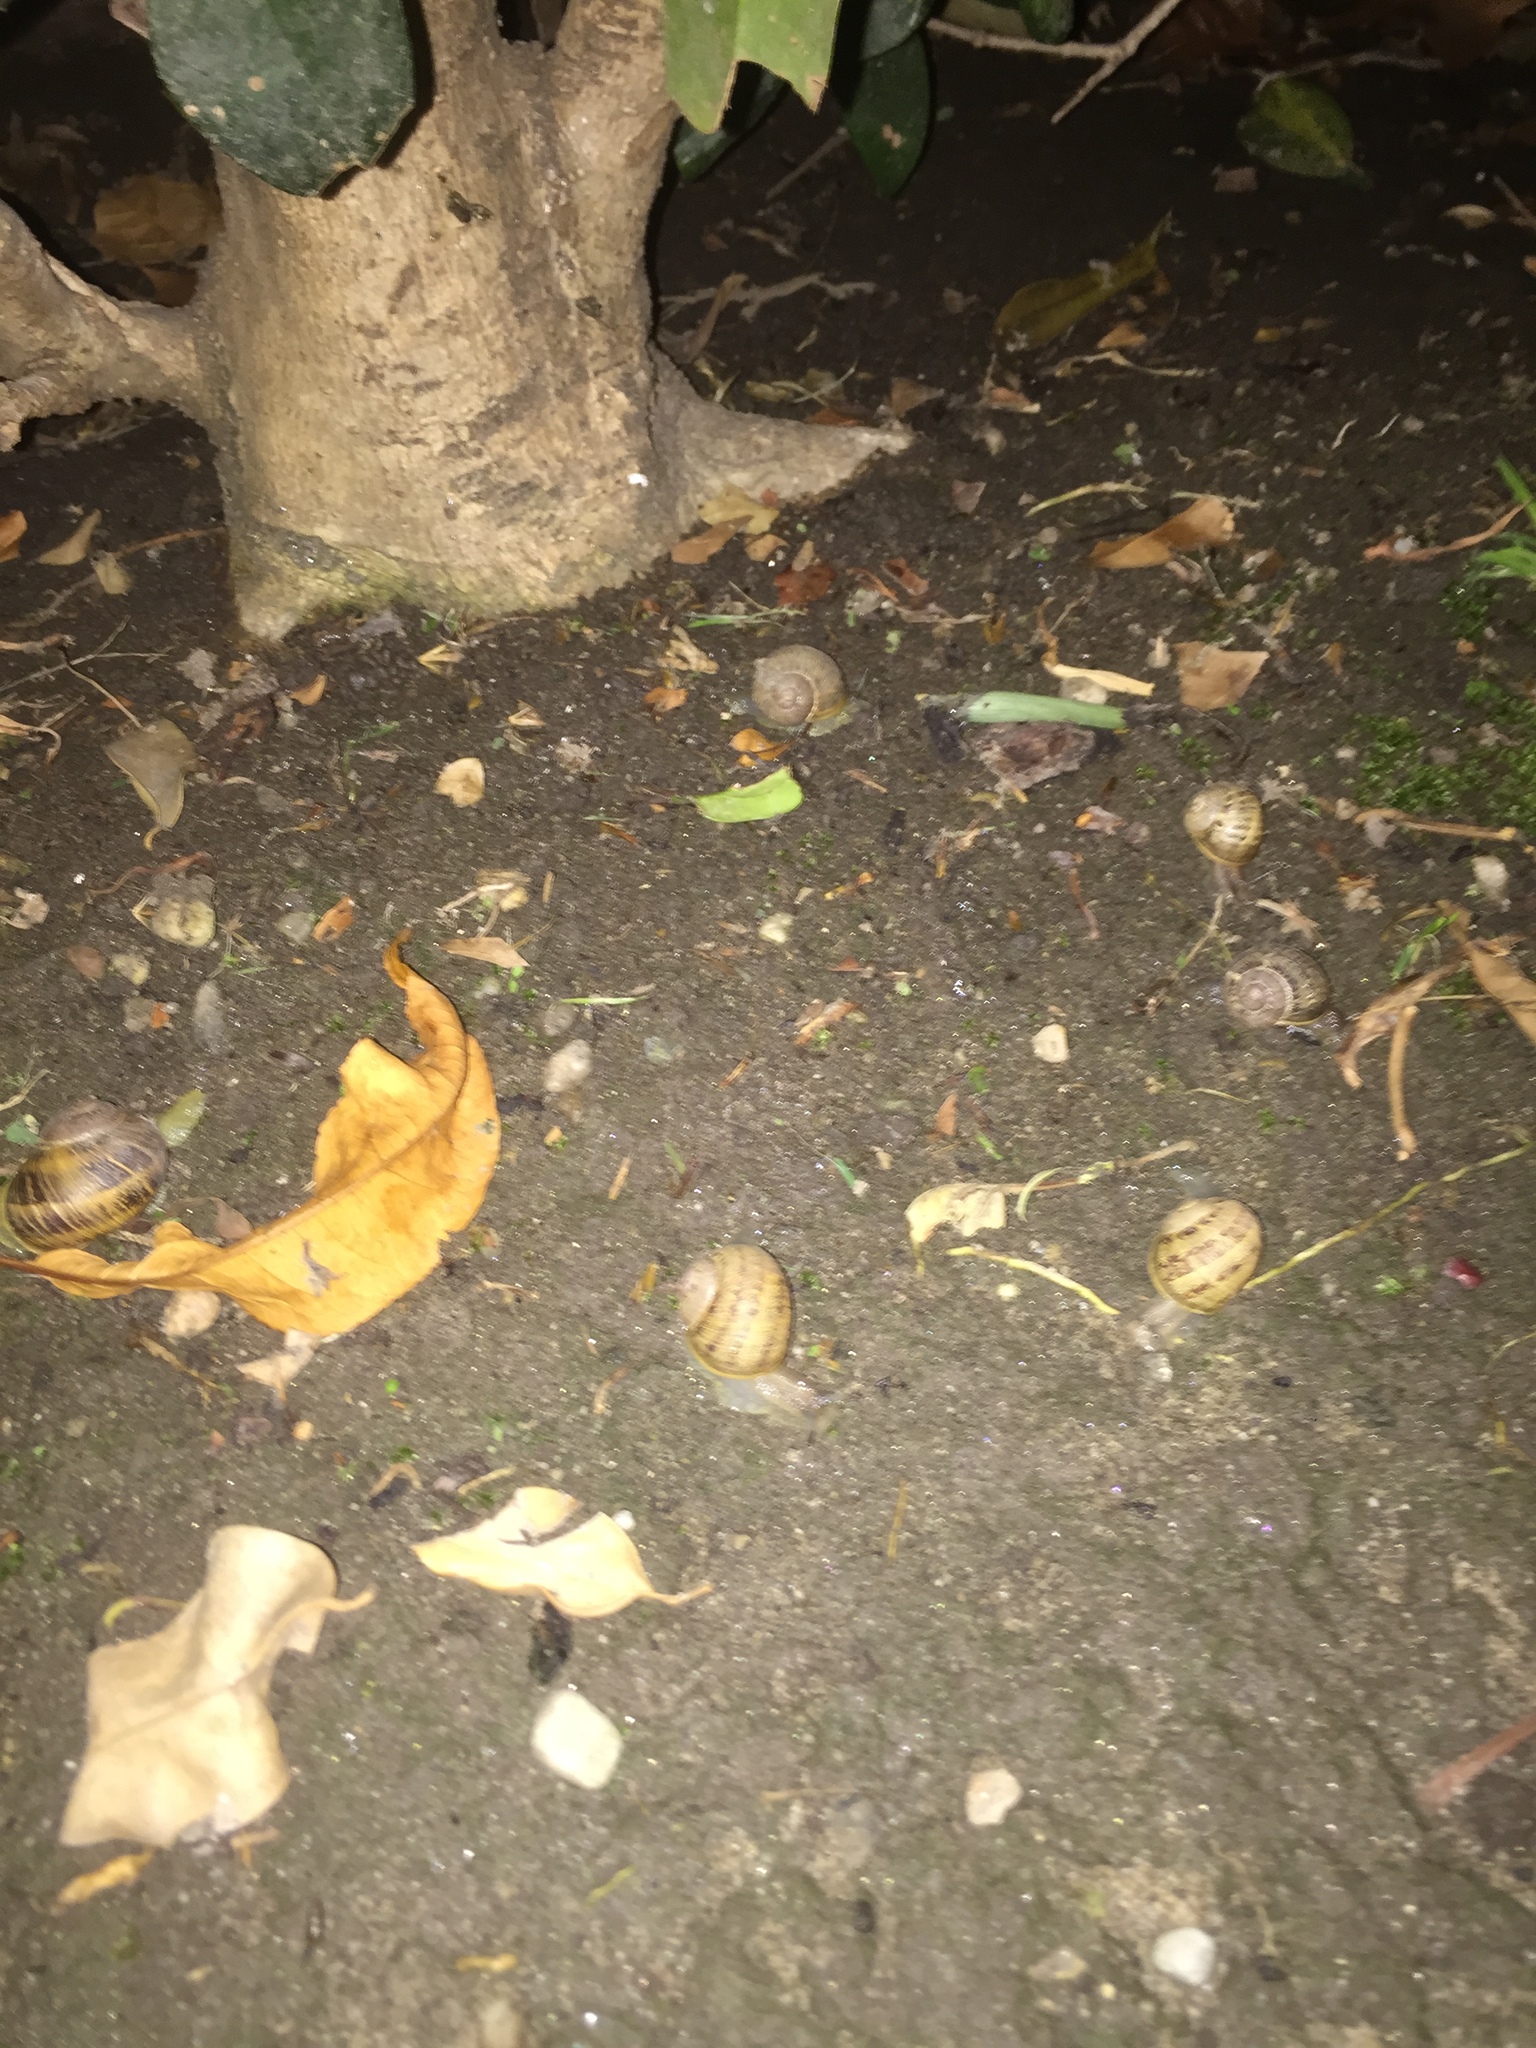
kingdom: Animalia
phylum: Mollusca
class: Gastropoda
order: Stylommatophora
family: Helicidae
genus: Cornu
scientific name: Cornu aspersum
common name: Brown garden snail
